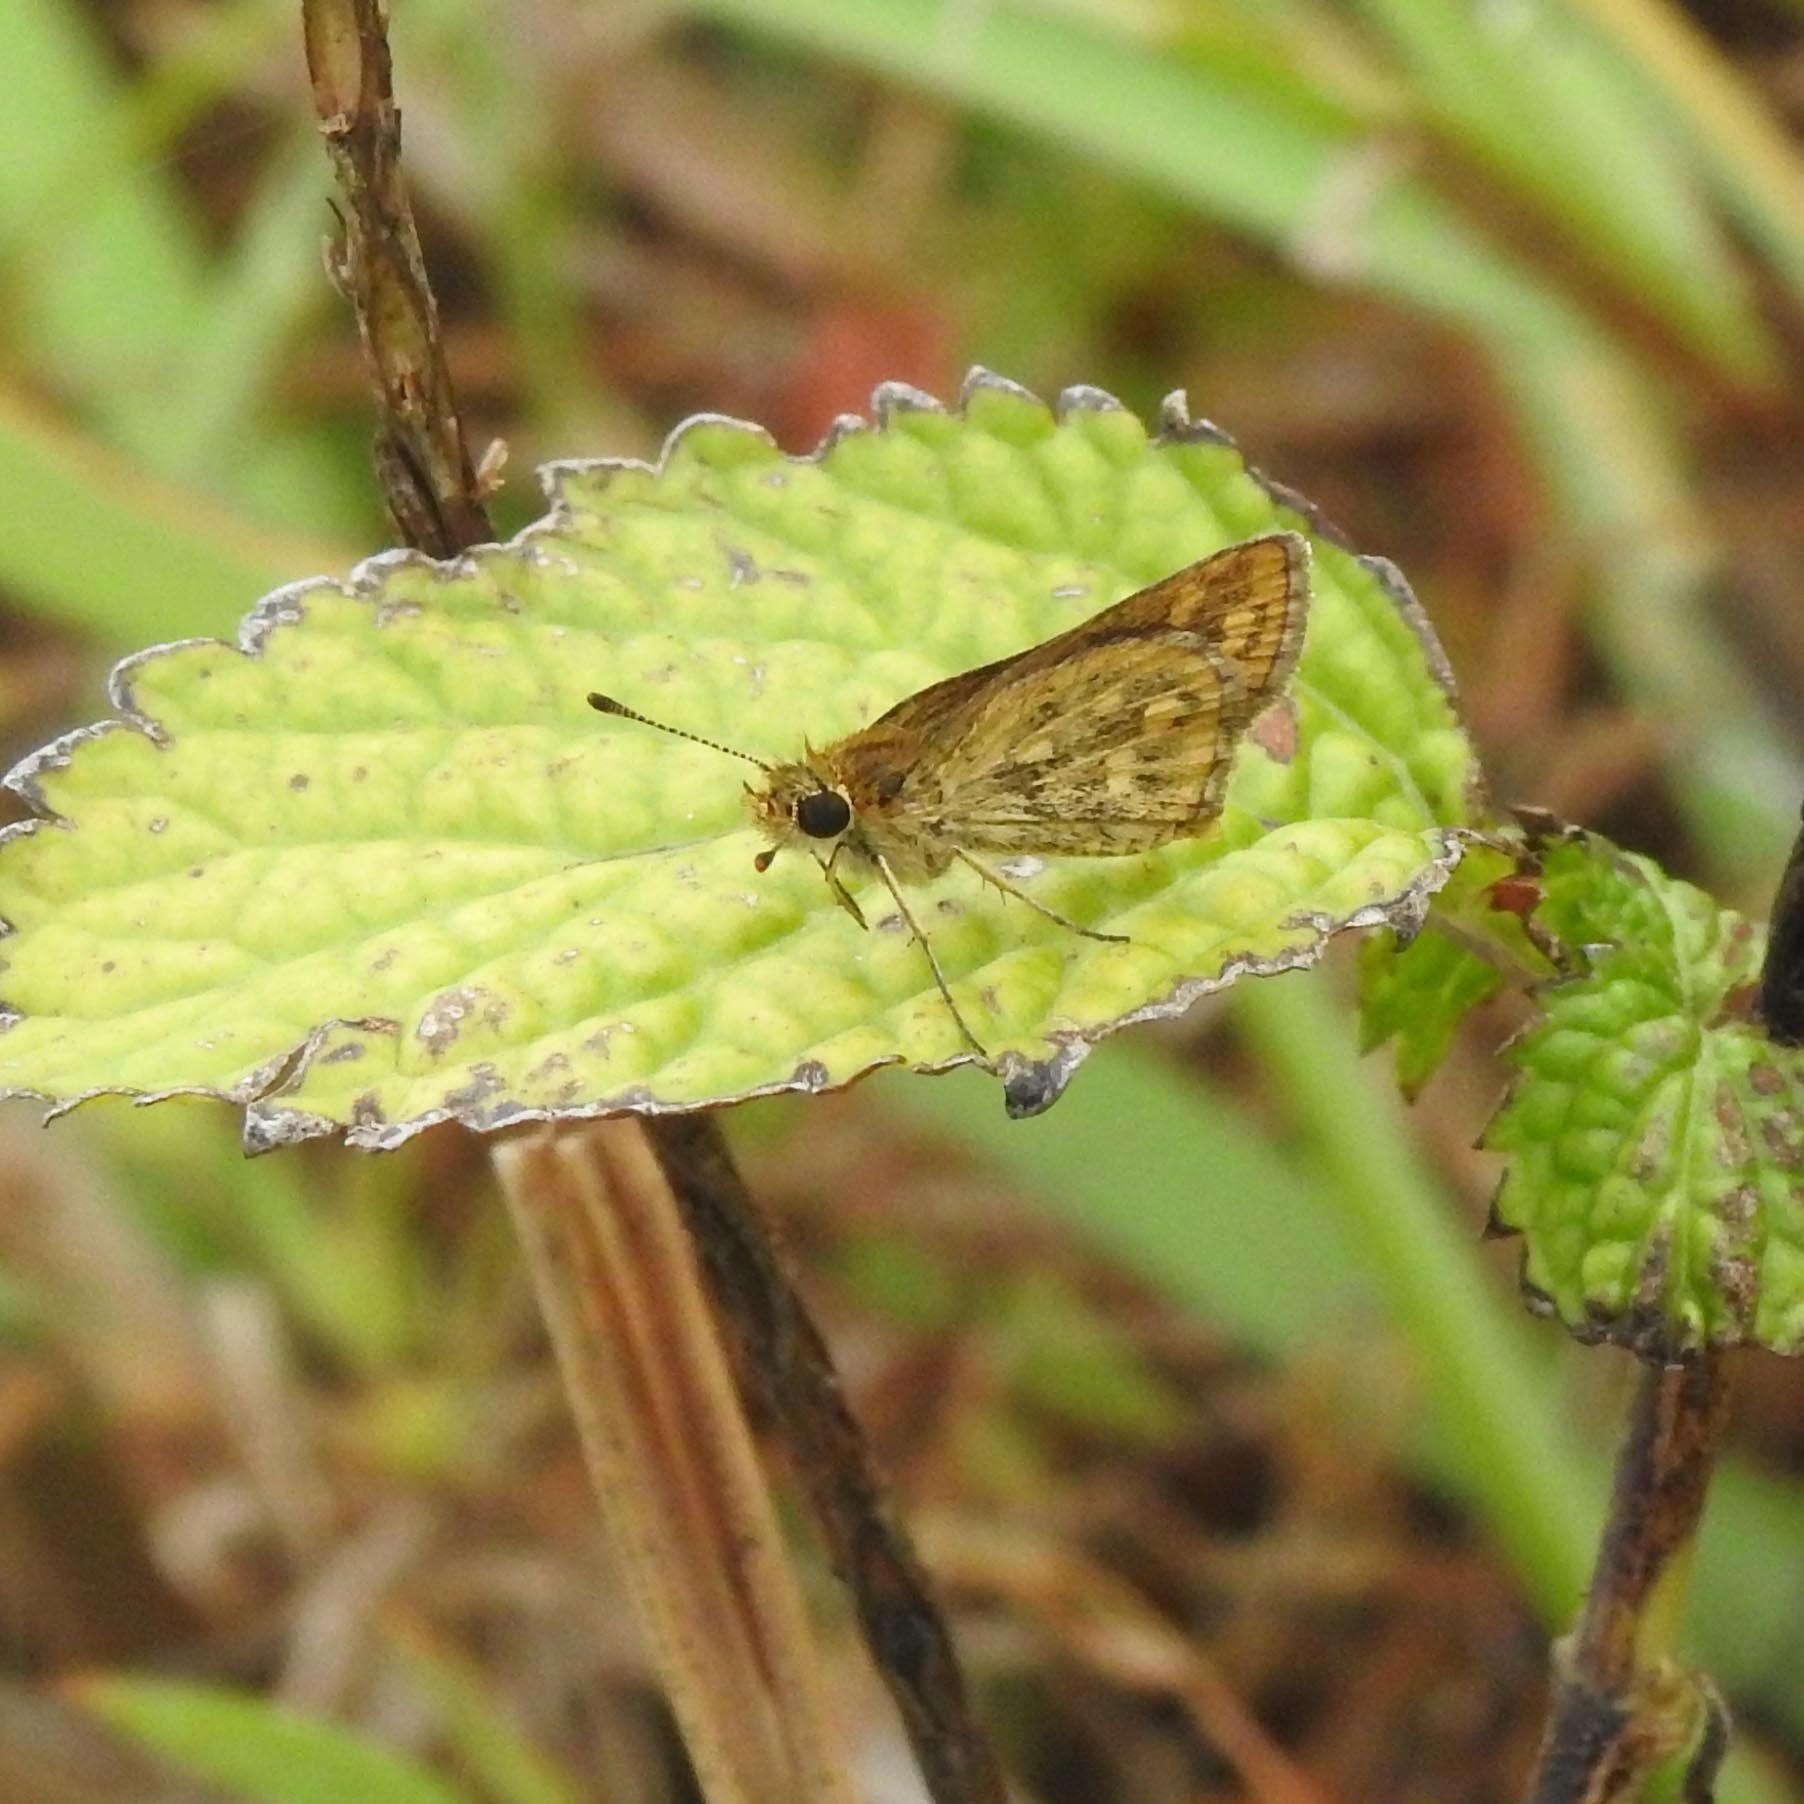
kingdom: Animalia
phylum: Arthropoda
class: Insecta
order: Lepidoptera
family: Hesperiidae
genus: Ampittia
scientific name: Ampittia dioscorides
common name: Common bush hopper
